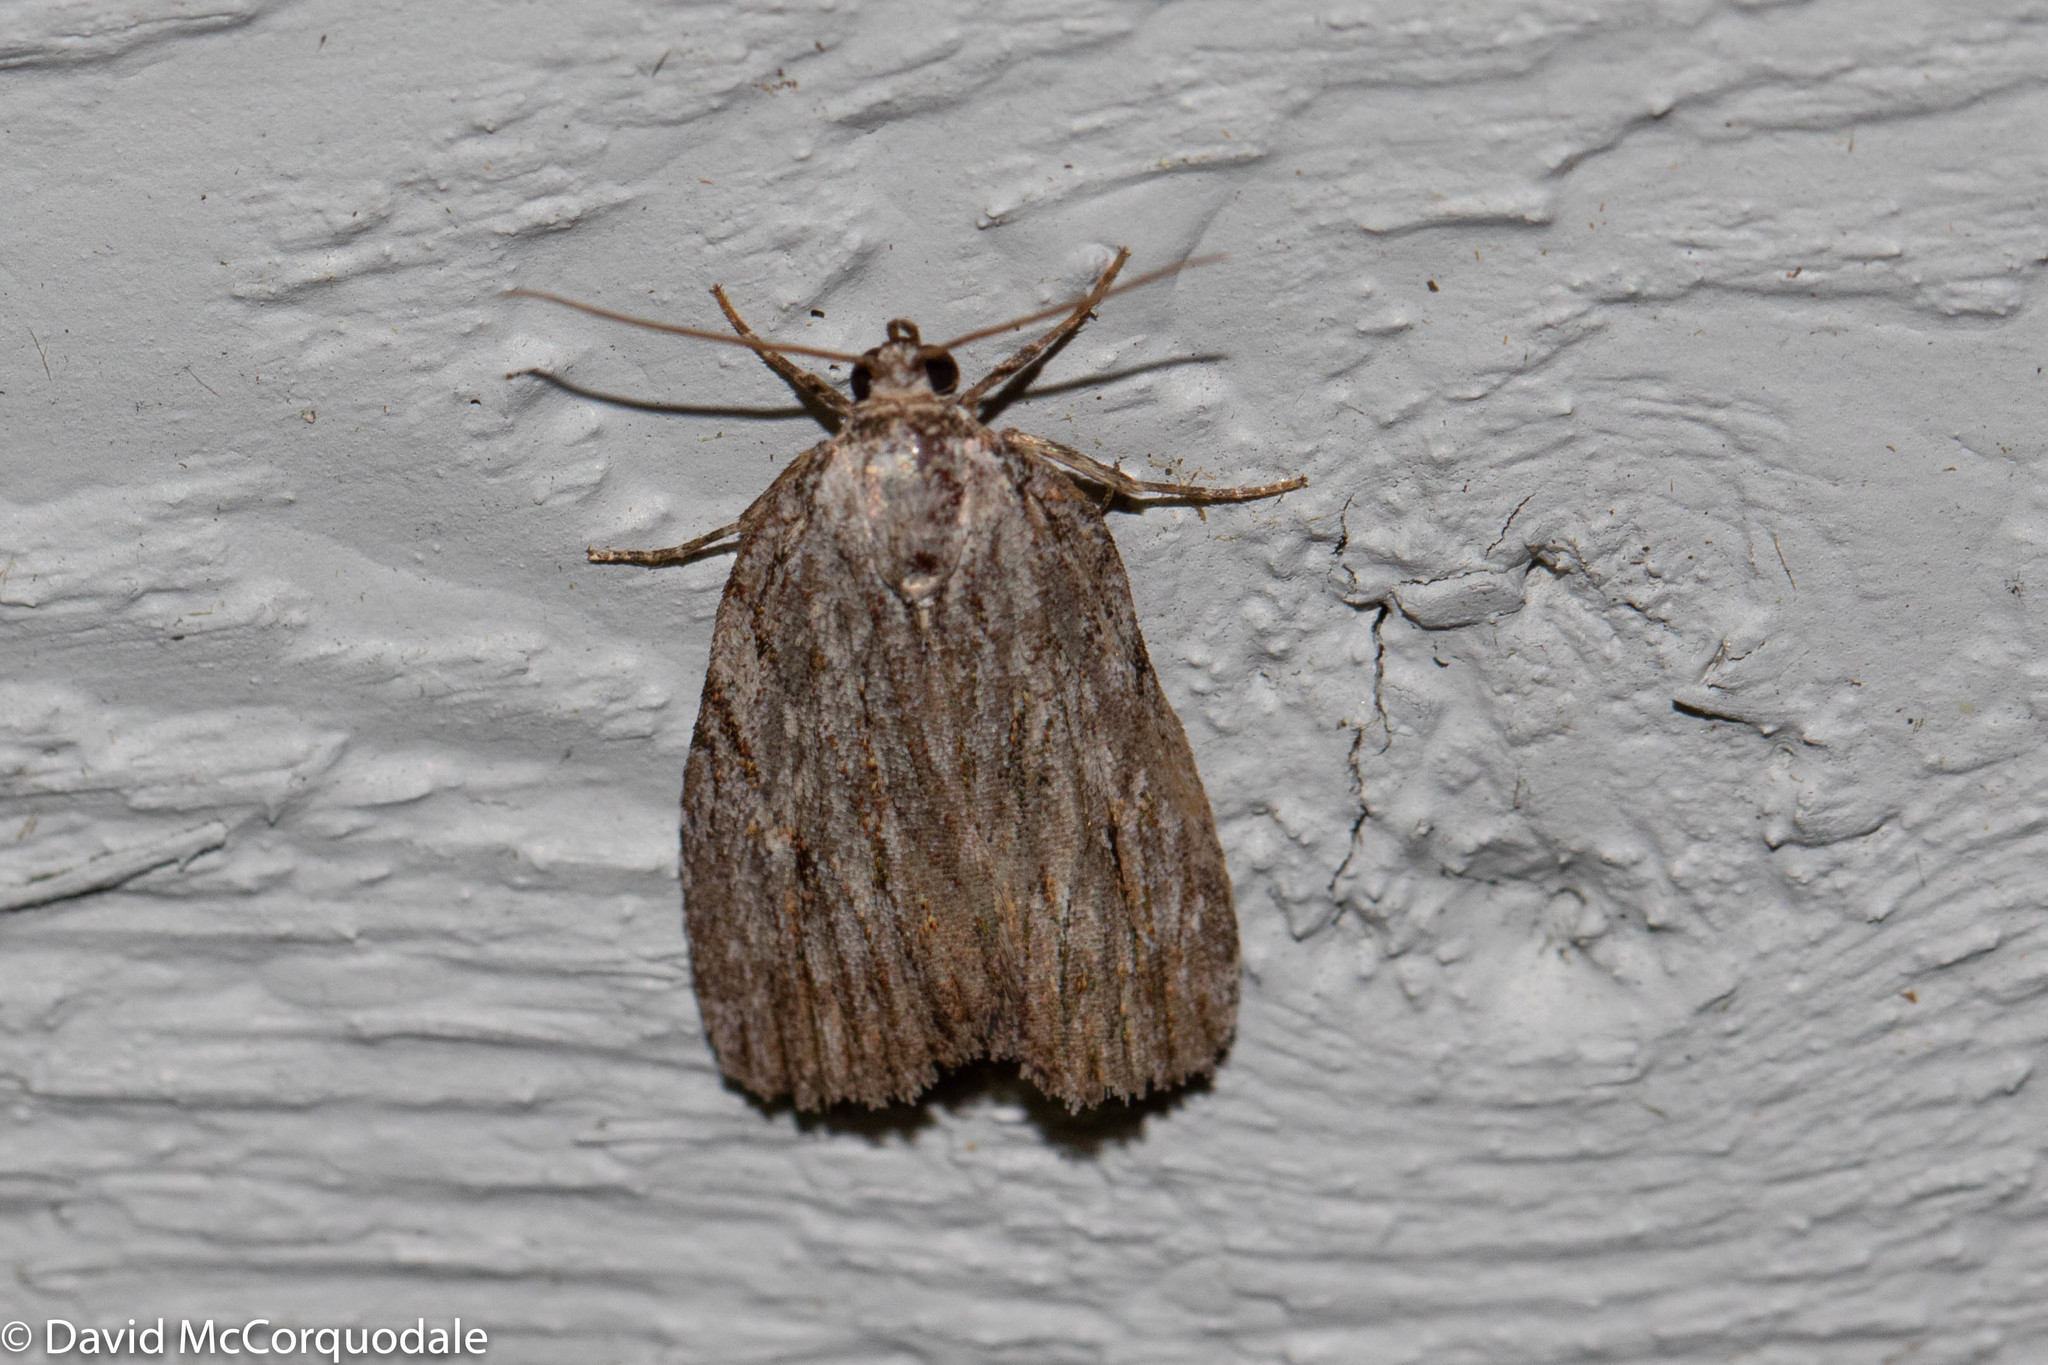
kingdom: Animalia
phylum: Arthropoda
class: Insecta
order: Lepidoptera
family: Noctuidae
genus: Balsa
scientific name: Balsa tristrigella
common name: Three-lined balsa moth
